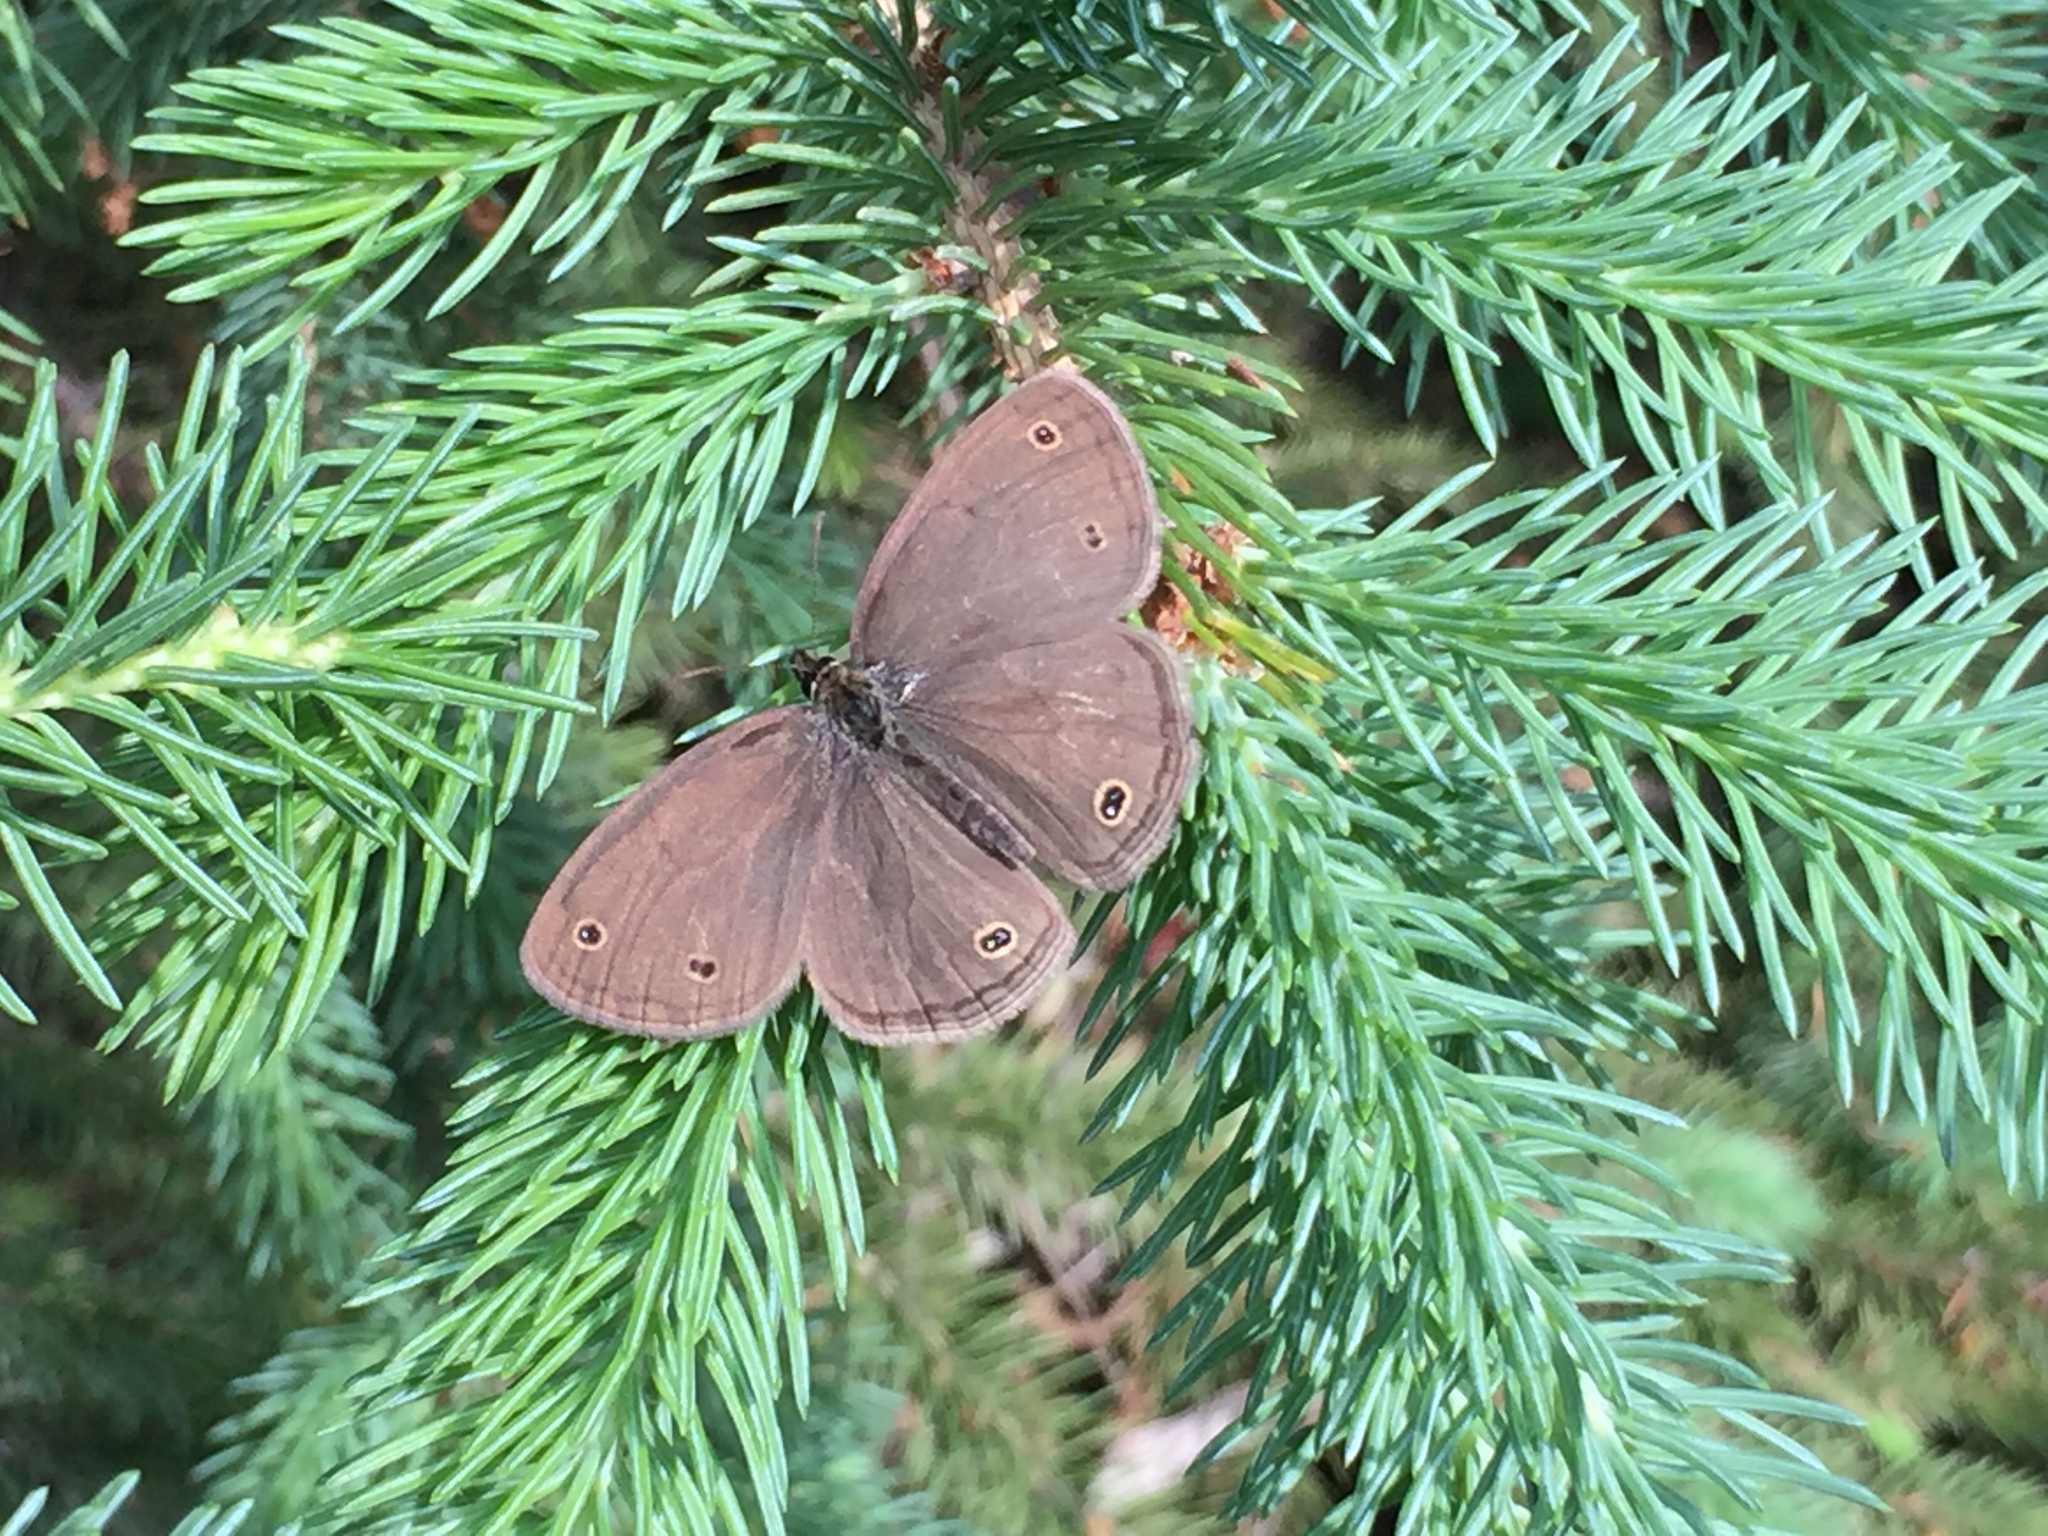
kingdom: Animalia
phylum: Arthropoda
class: Insecta
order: Lepidoptera
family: Nymphalidae
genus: Euptychia
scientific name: Euptychia cymela
